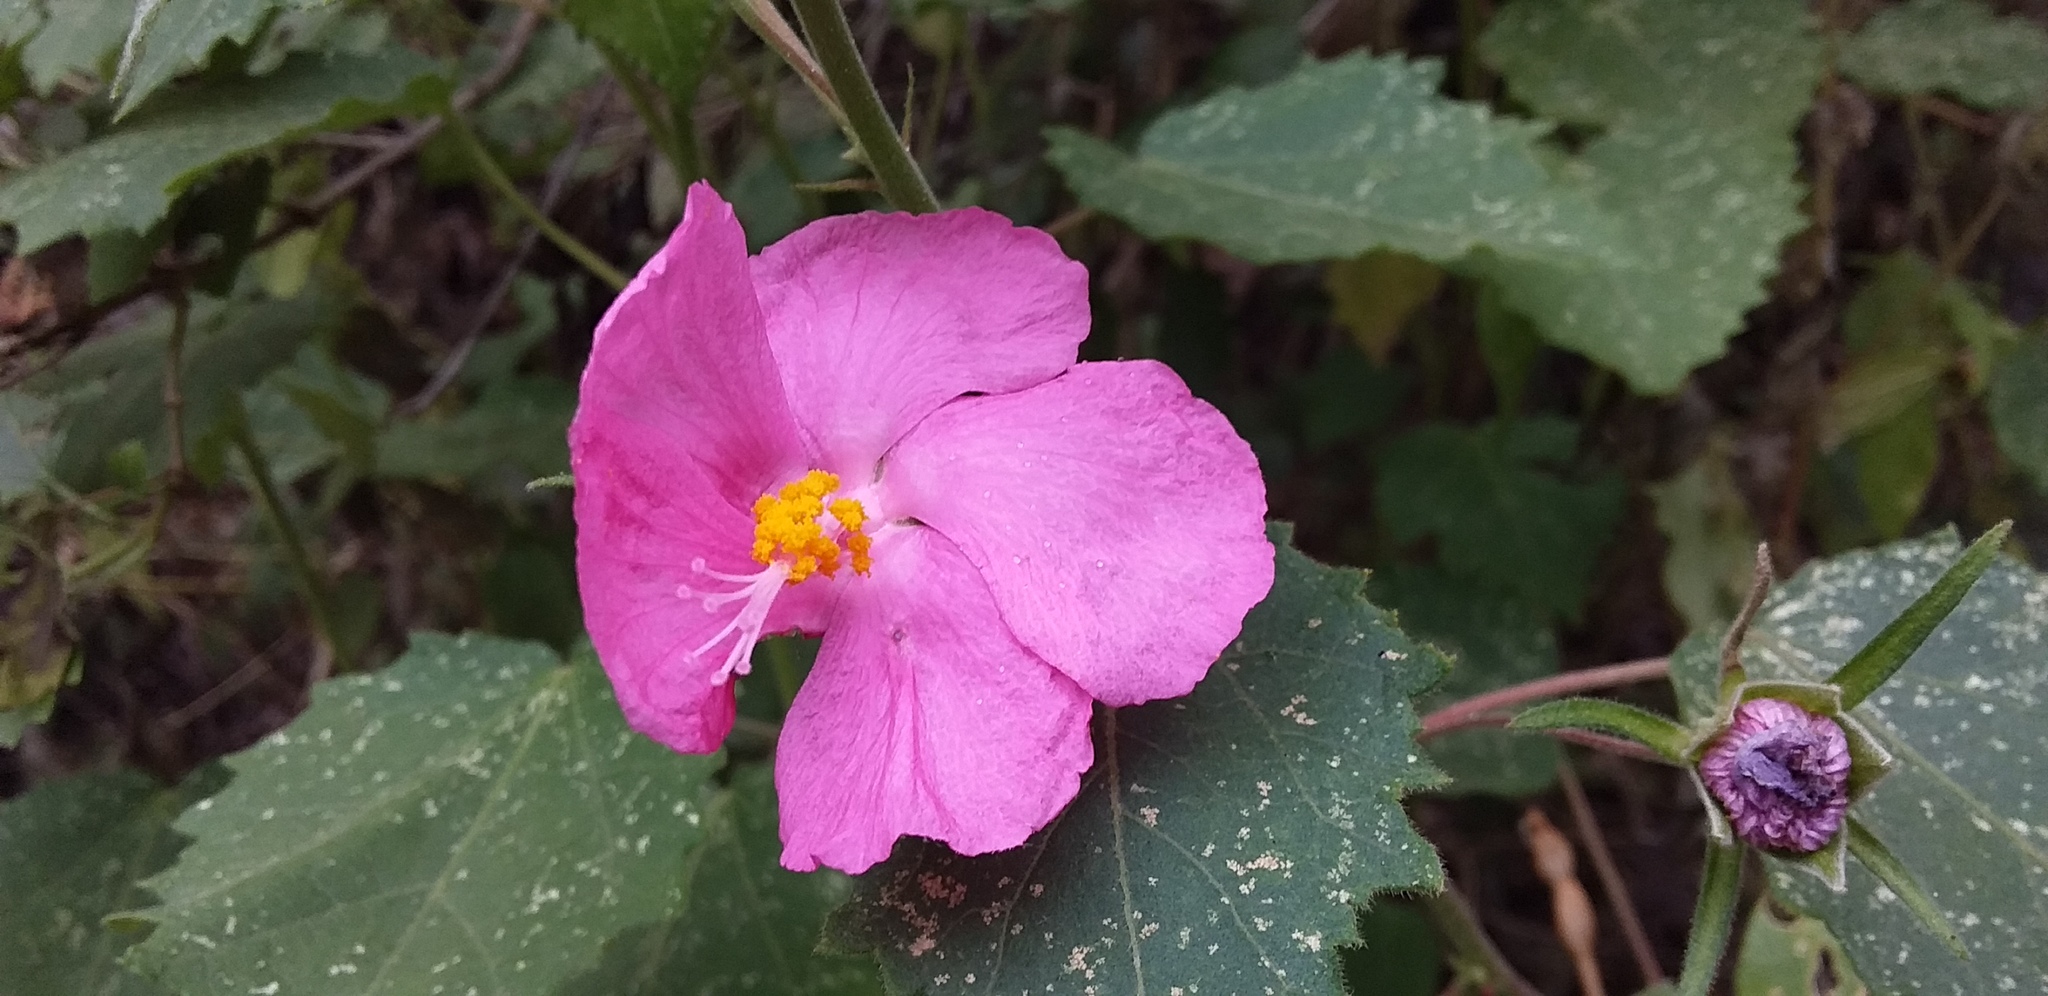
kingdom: Plantae
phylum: Tracheophyta
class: Magnoliopsida
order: Malvales
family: Malvaceae
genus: Pavonia
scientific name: Pavonia lasiopetala
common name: Texas swamp-mallow
